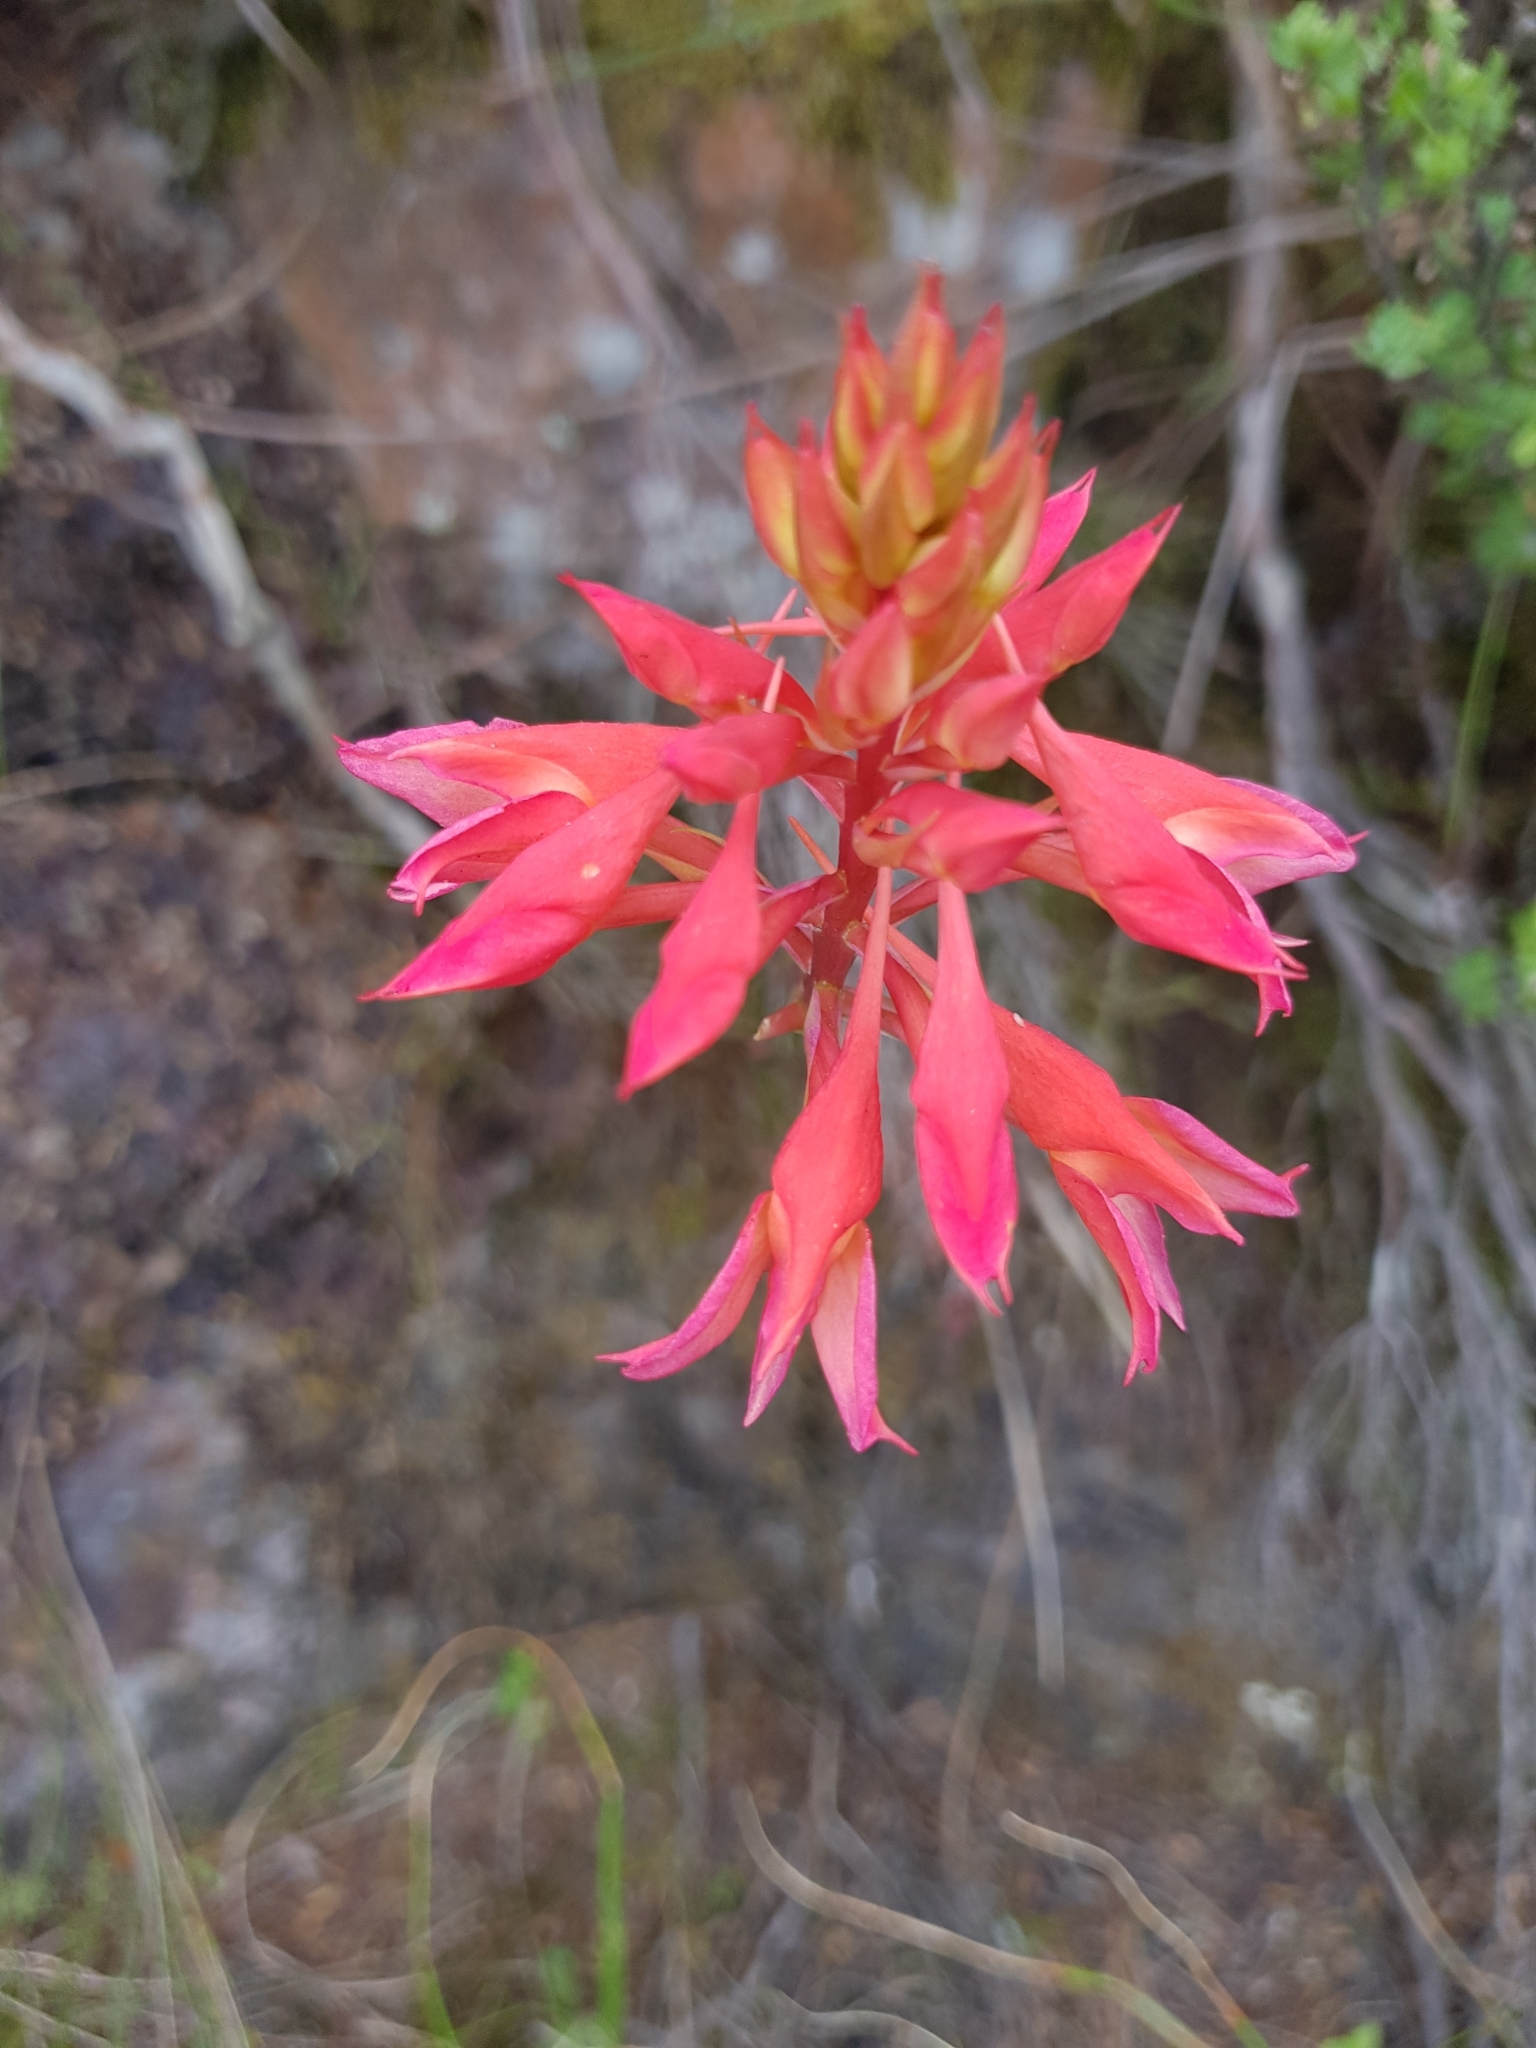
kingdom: Plantae
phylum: Tracheophyta
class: Liliopsida
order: Asparagales
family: Orchidaceae
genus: Disa
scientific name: Disa ferruginea
